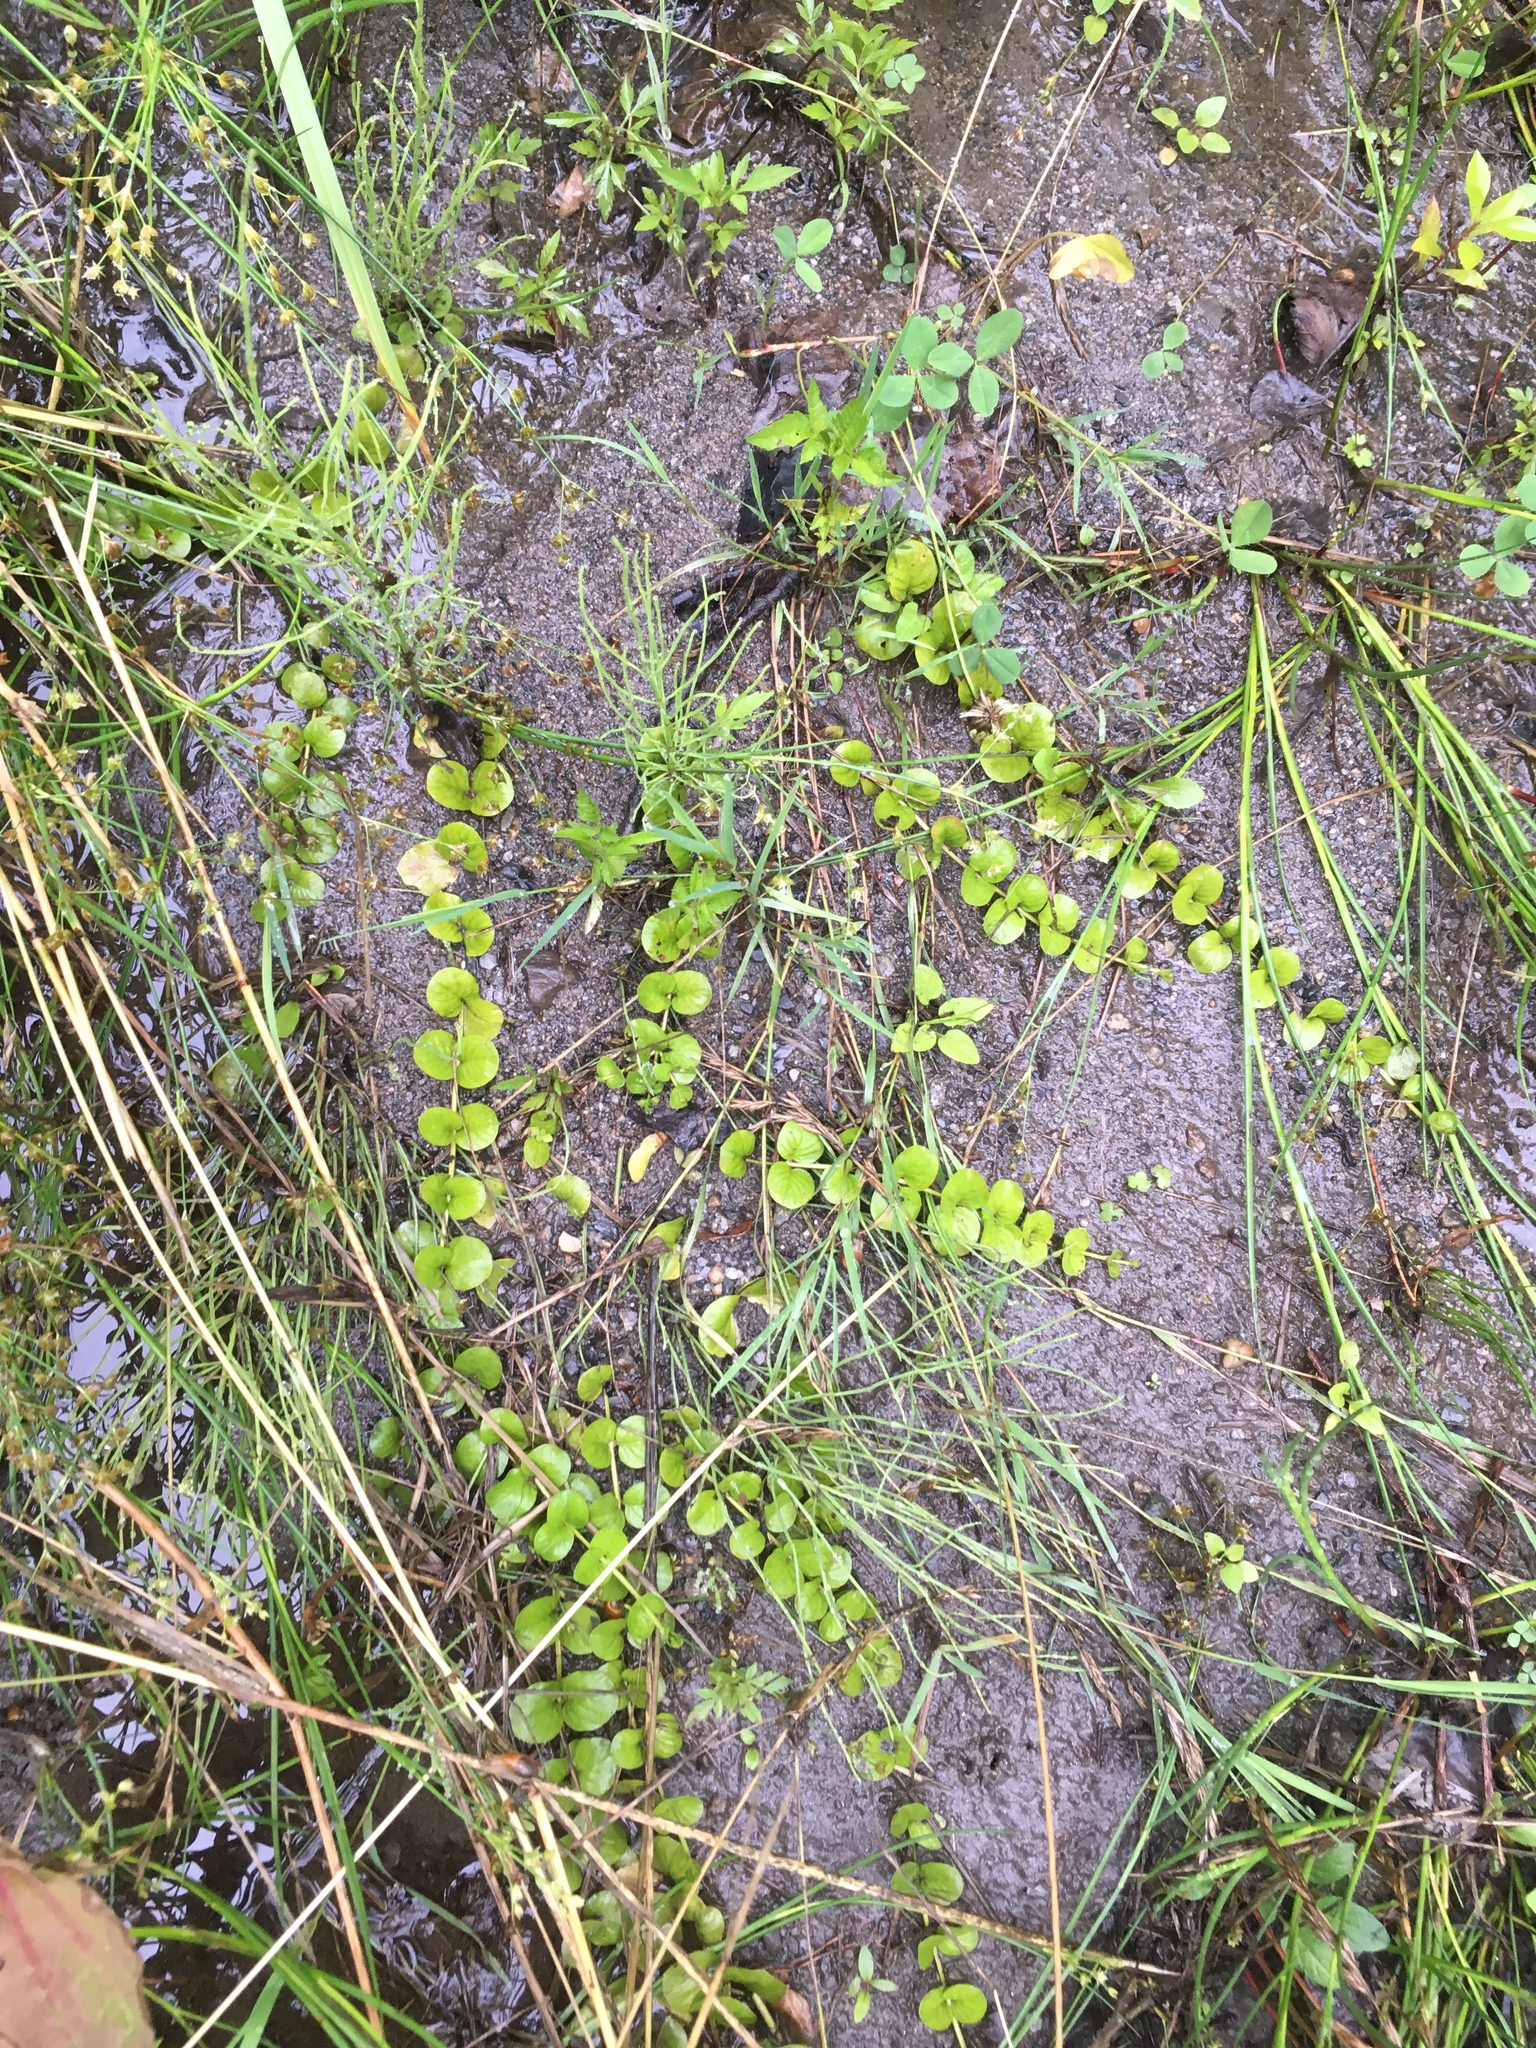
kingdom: Plantae
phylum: Tracheophyta
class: Magnoliopsida
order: Ericales
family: Primulaceae
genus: Lysimachia
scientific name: Lysimachia nummularia
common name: Moneywort
